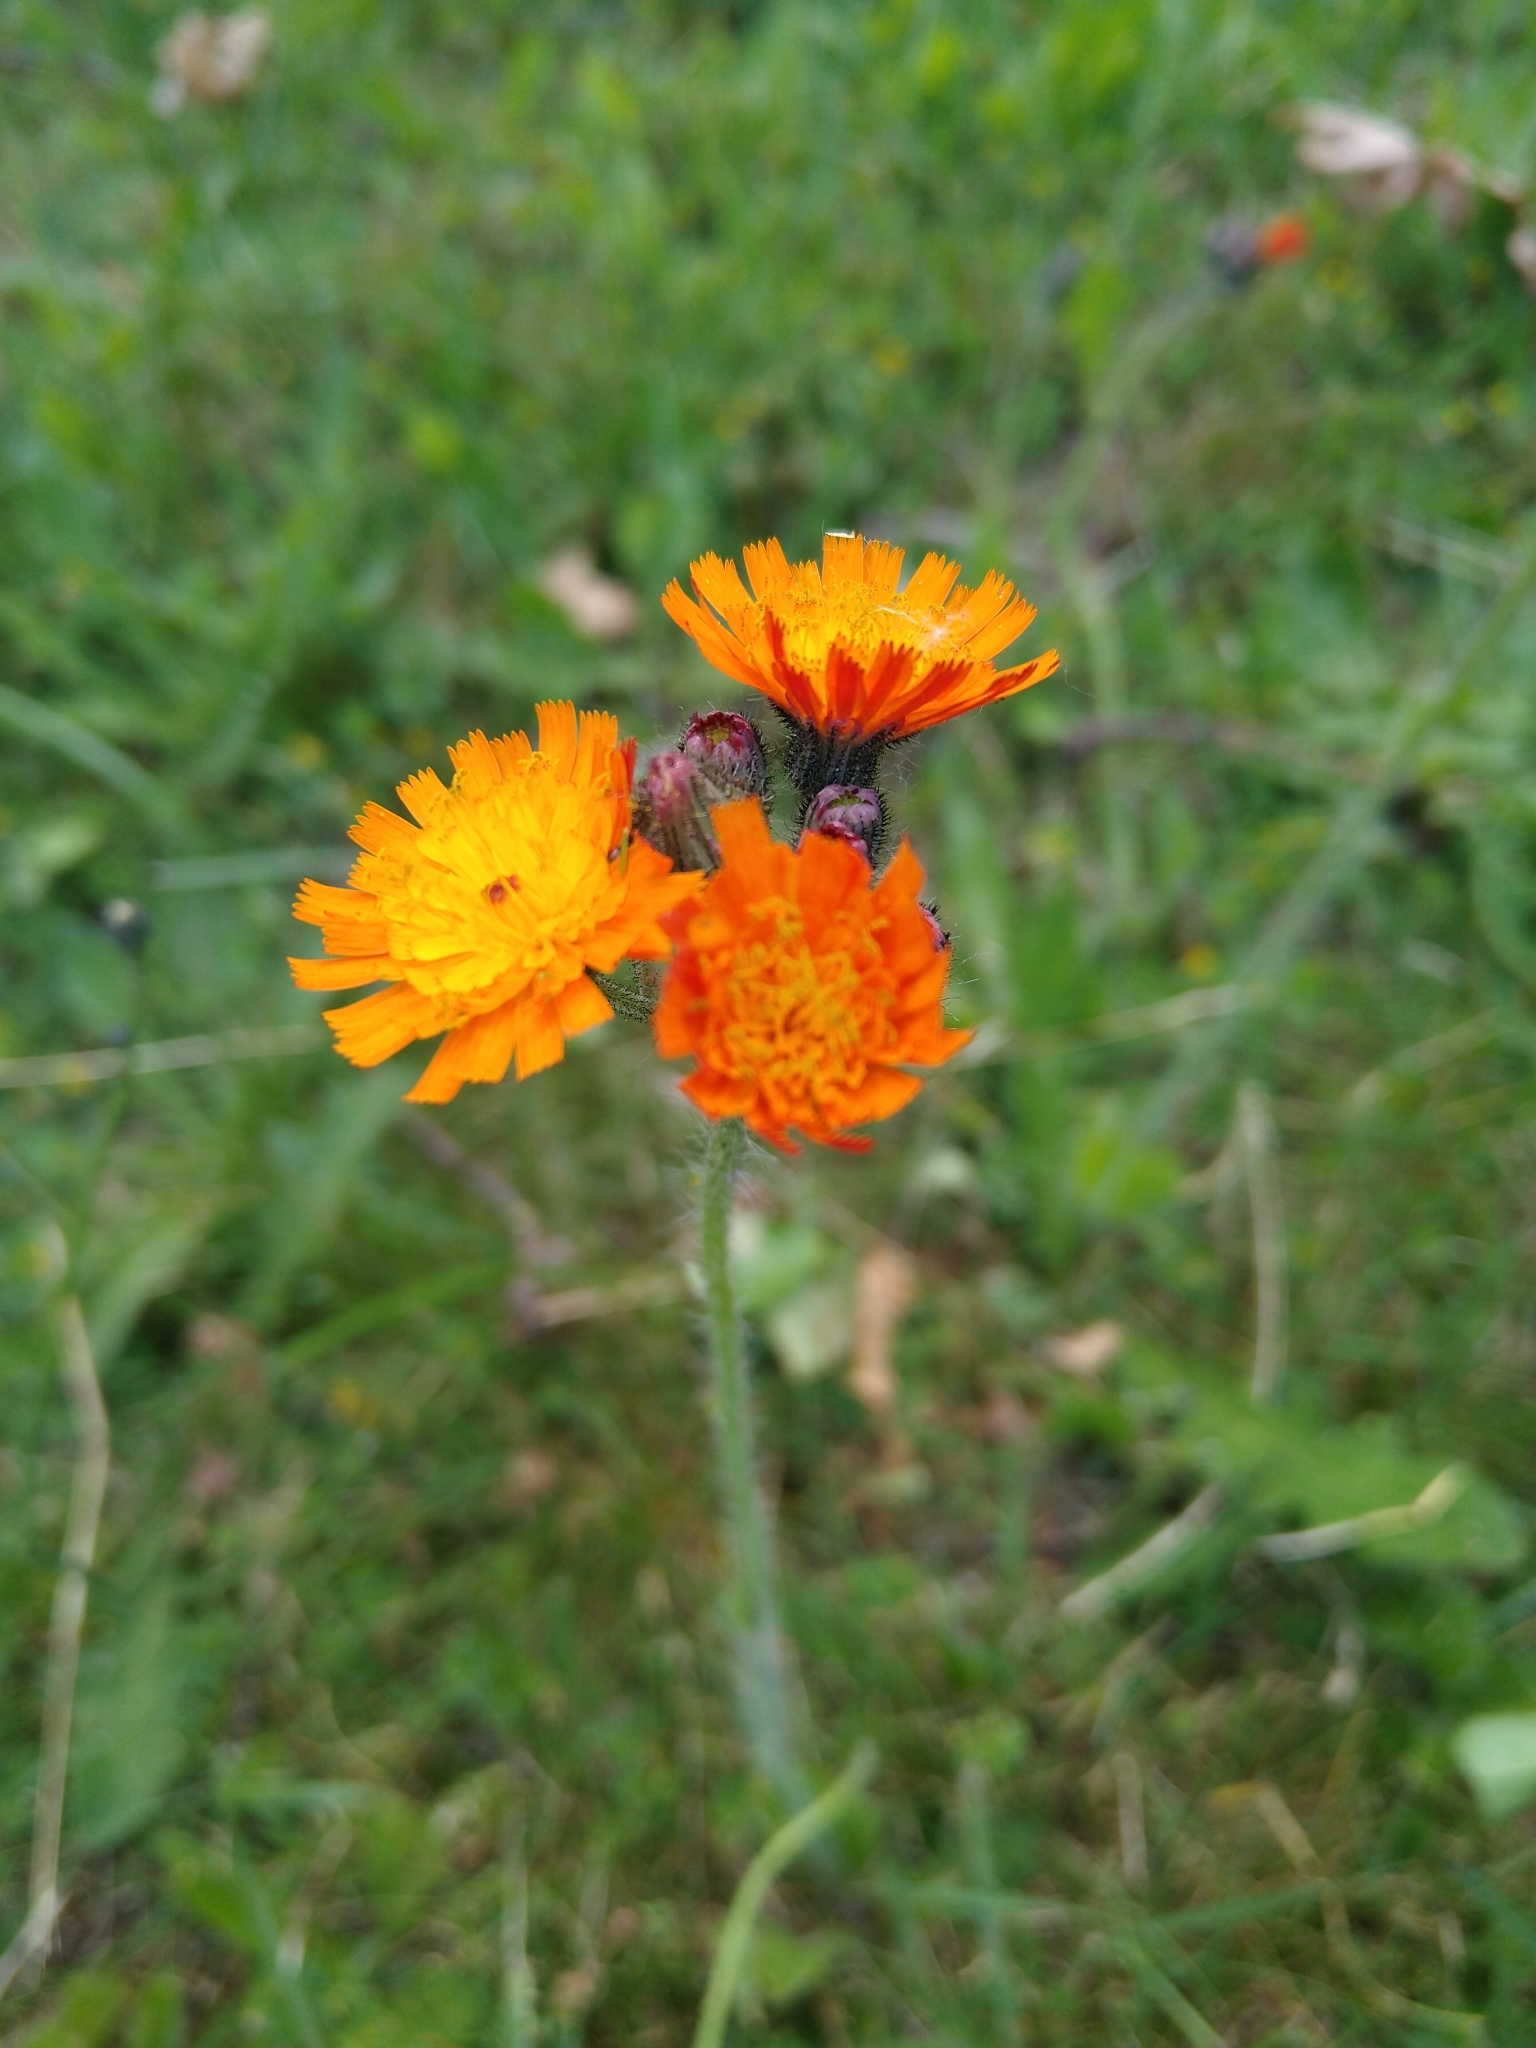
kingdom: Plantae
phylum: Tracheophyta
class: Magnoliopsida
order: Asterales
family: Asteraceae
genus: Pilosella
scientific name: Pilosella aurantiaca
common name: Fox-and-cubs
